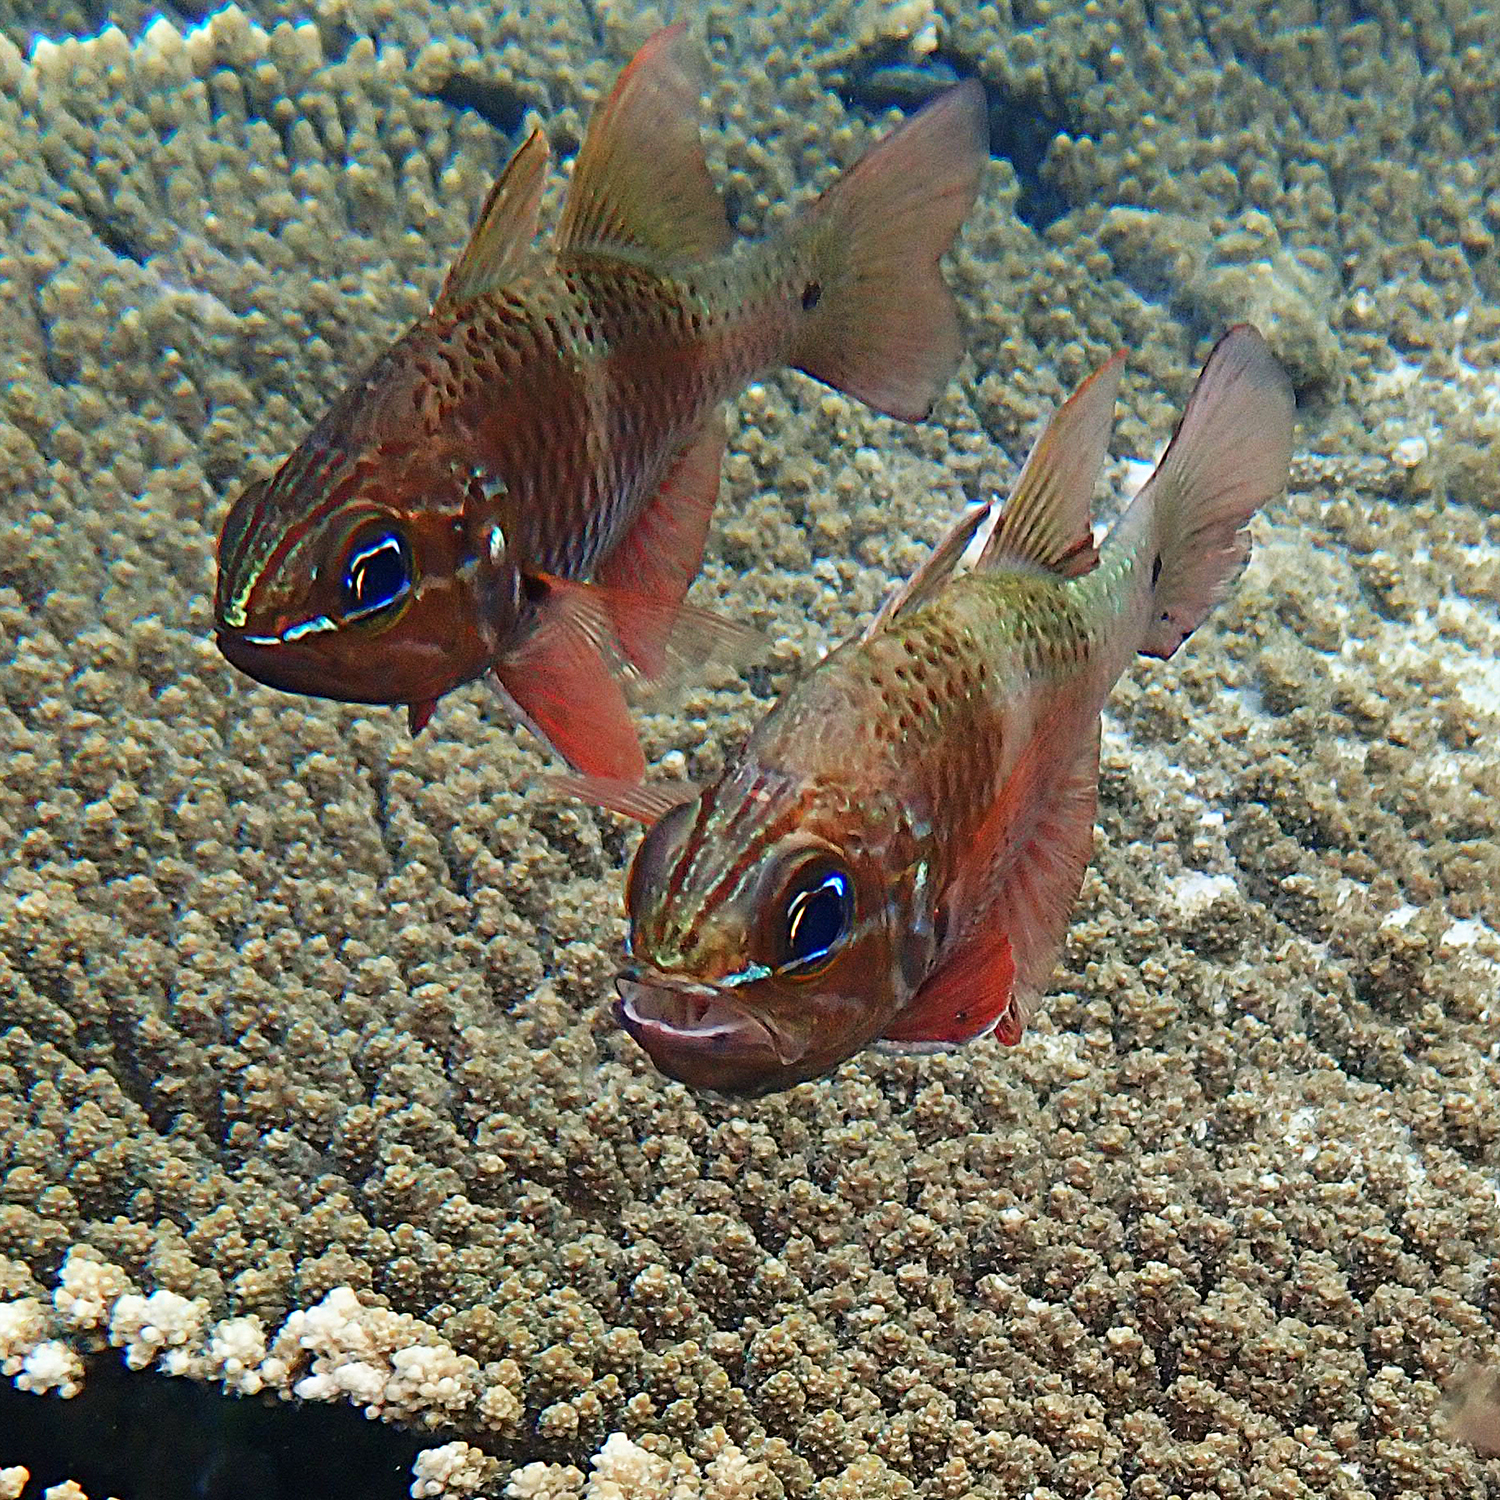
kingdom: Animalia
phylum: Chordata
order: Perciformes
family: Apogonidae
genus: Ostorhinchus
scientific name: Ostorhinchus norfolcensis
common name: Norfolk cardinalfish
